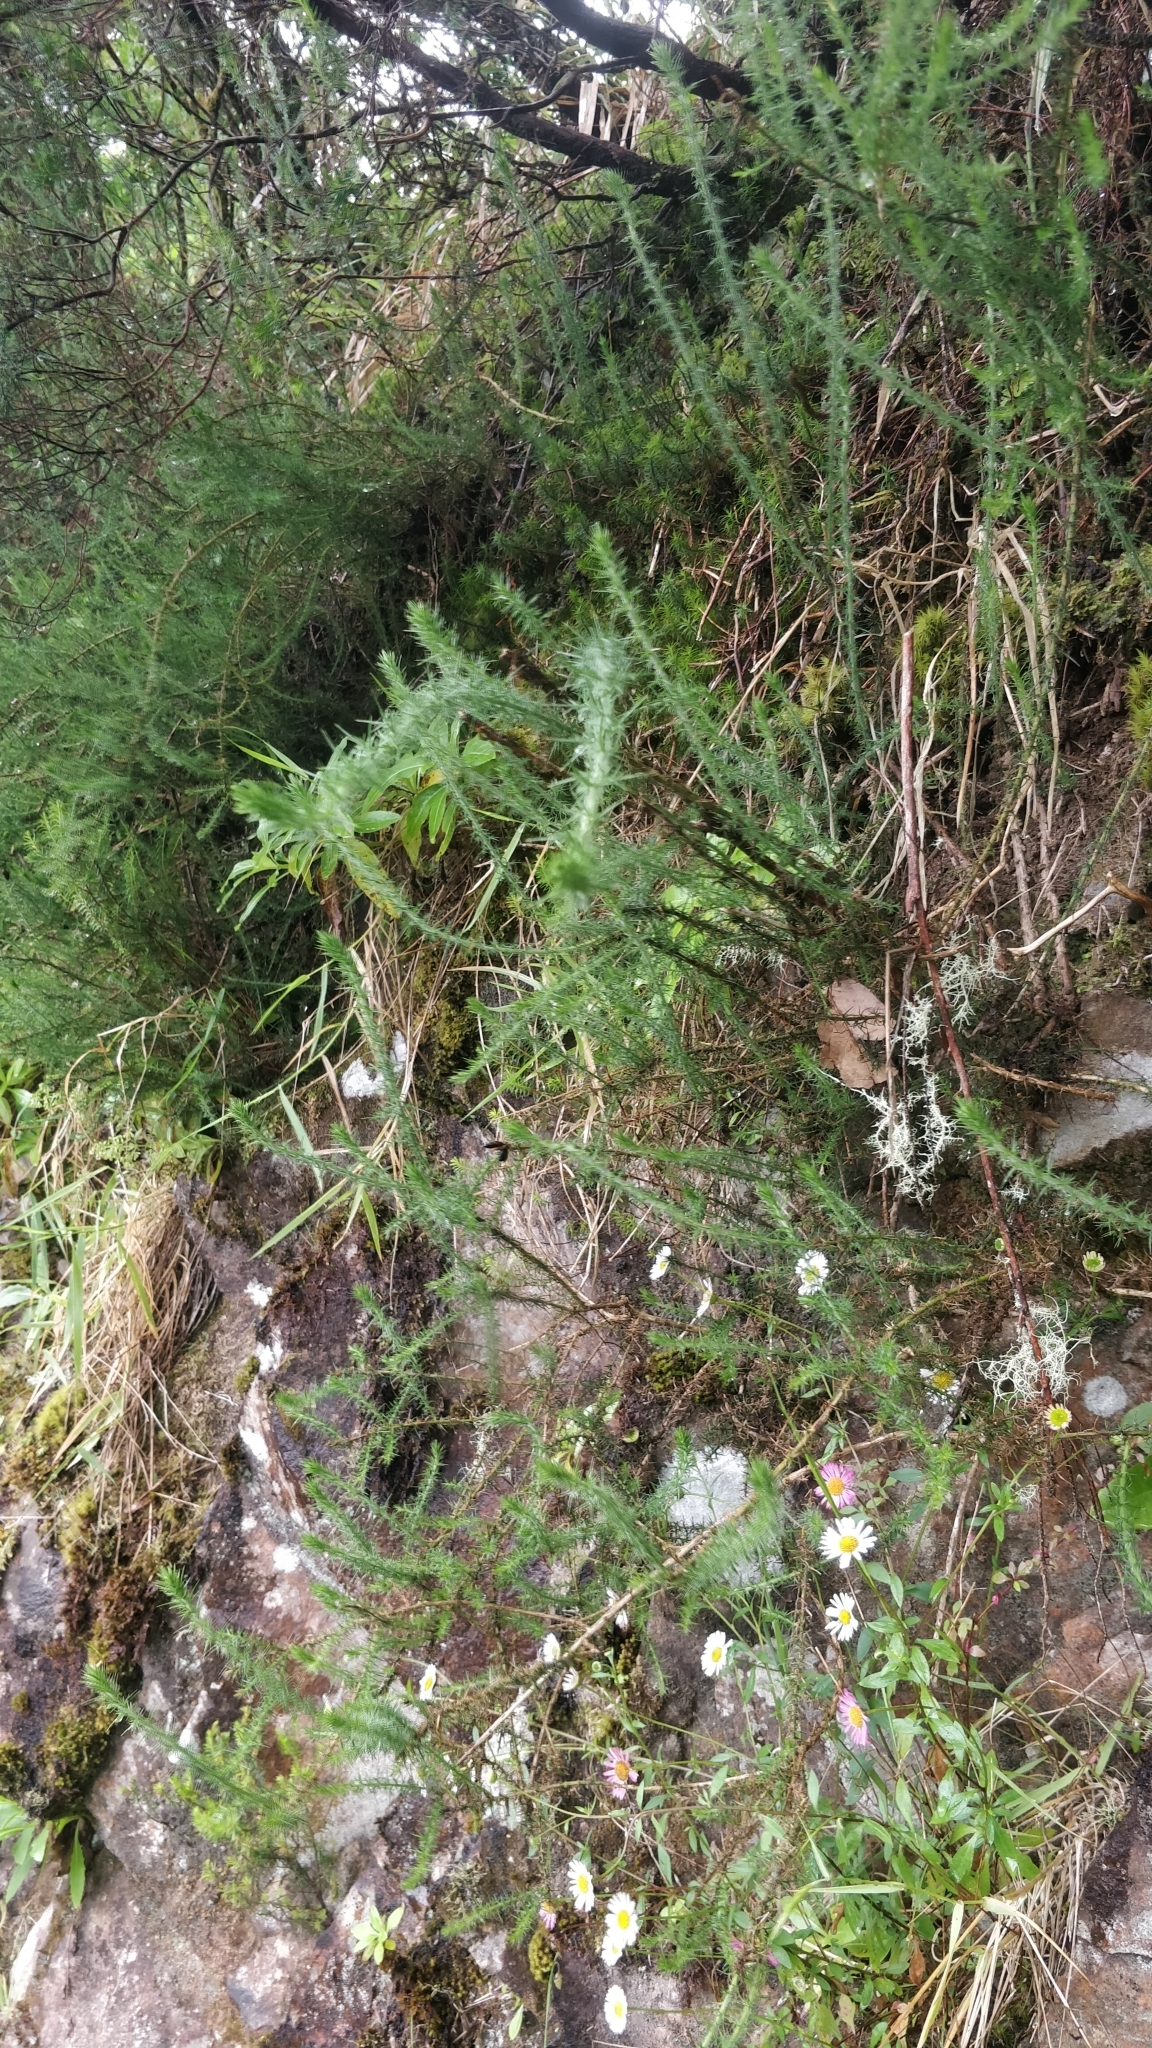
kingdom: Plantae
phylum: Tracheophyta
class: Magnoliopsida
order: Fabales
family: Fabaceae
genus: Ulex
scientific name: Ulex minor
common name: Dwarf gorse
